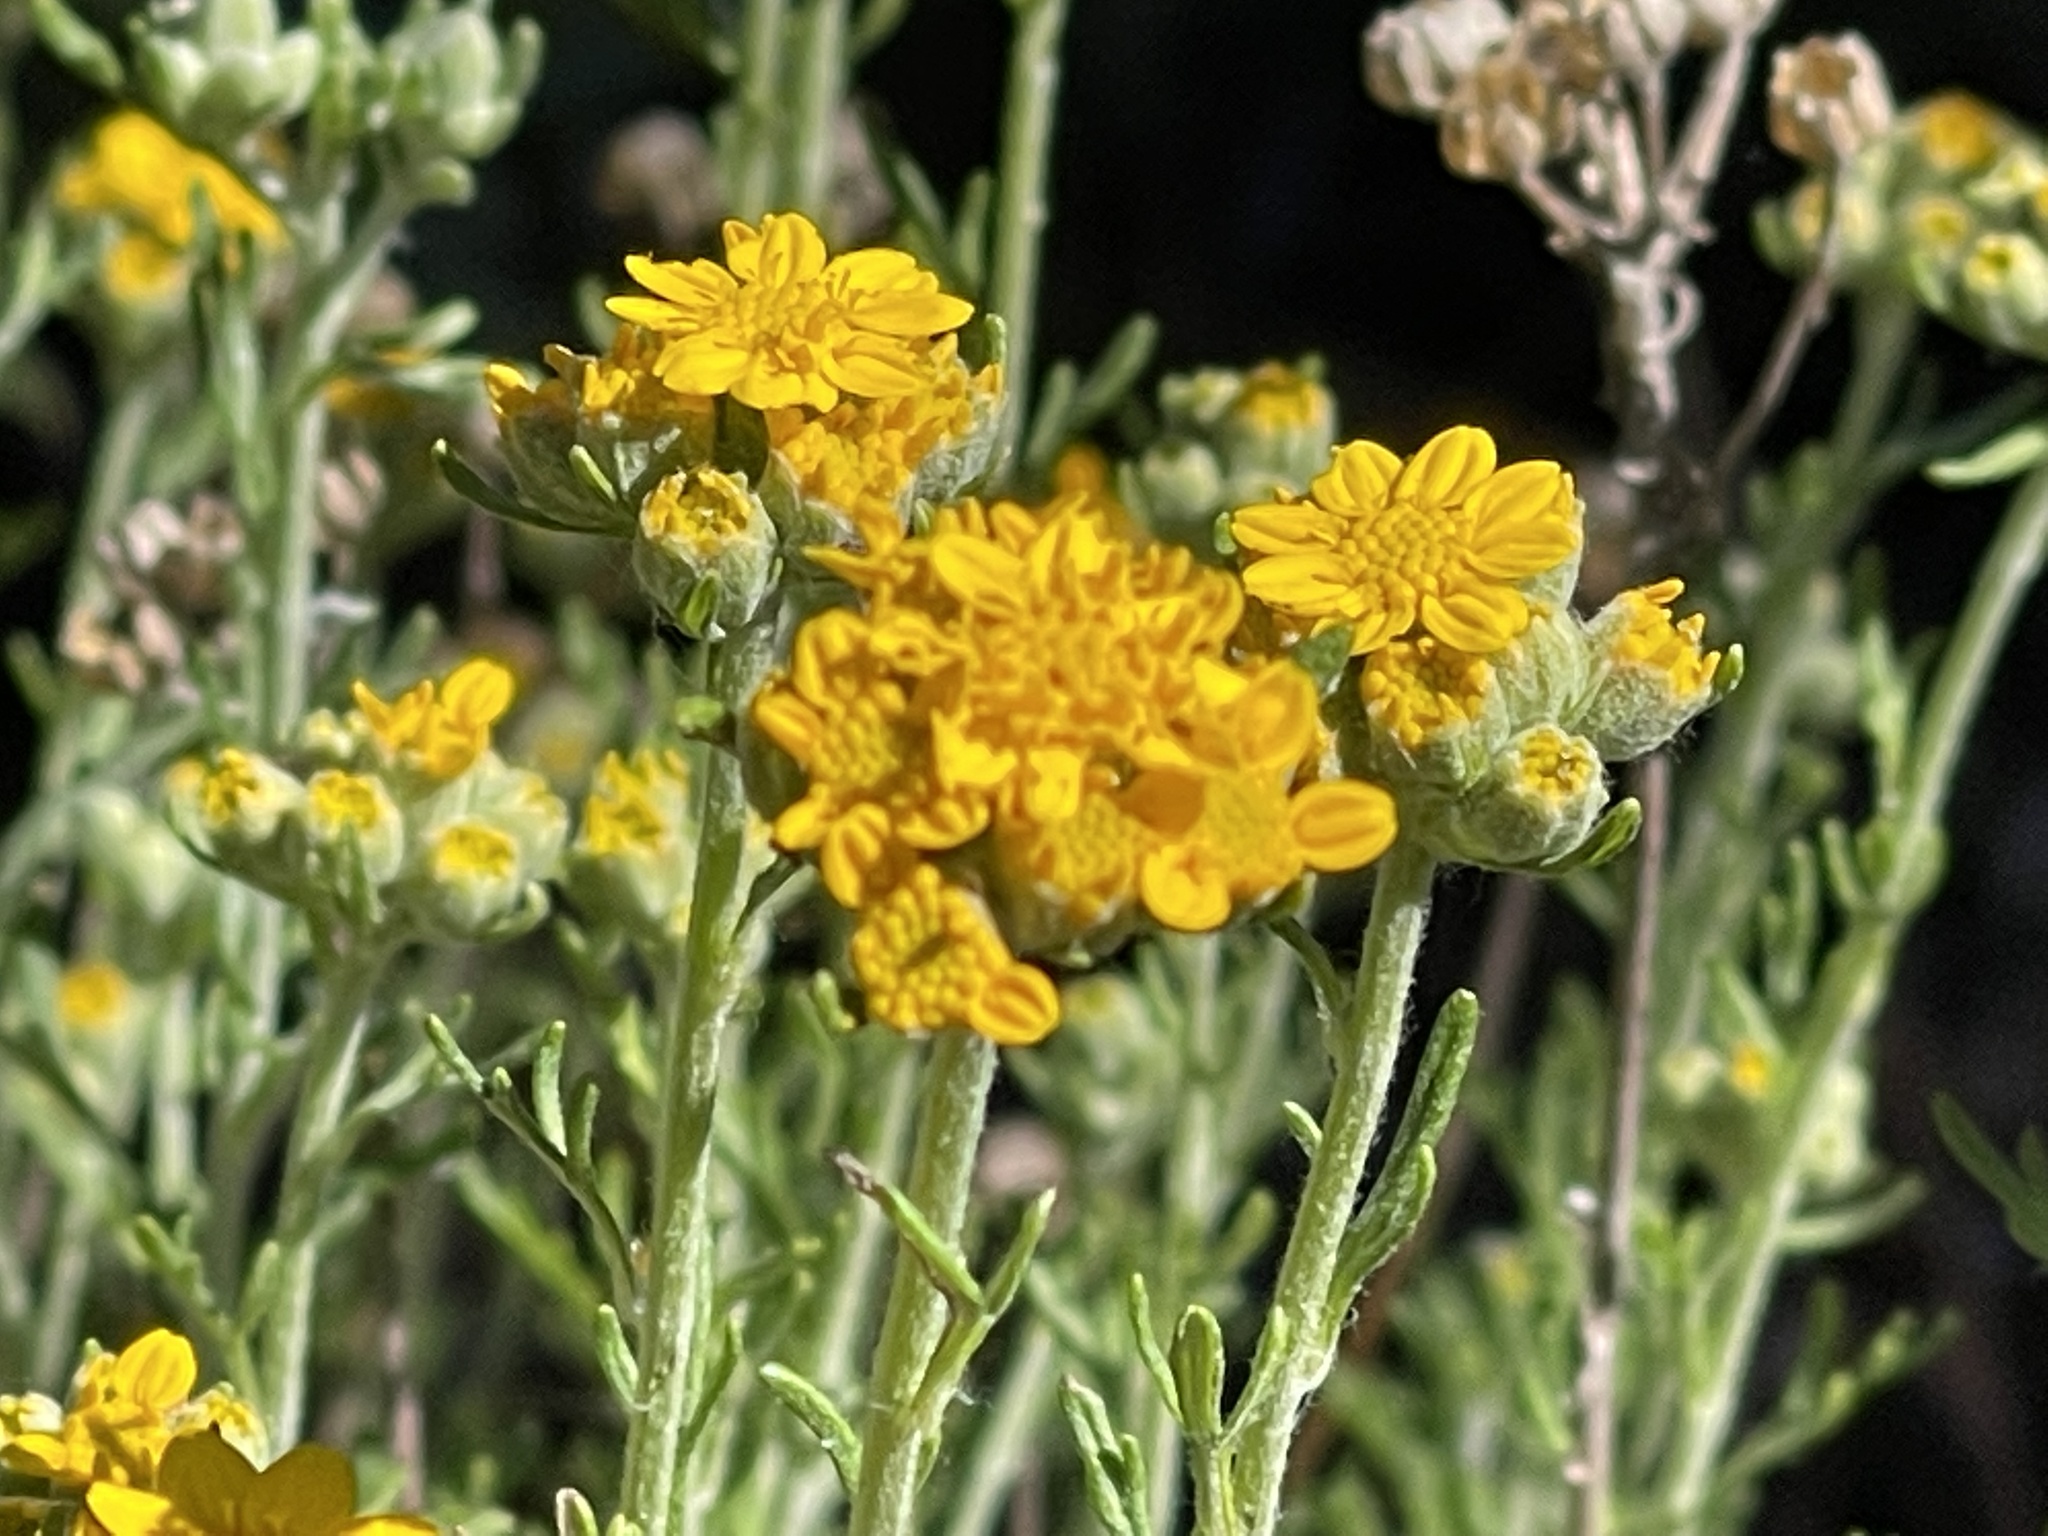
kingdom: Plantae
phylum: Tracheophyta
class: Magnoliopsida
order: Asterales
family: Asteraceae
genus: Eriophyllum
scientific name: Eriophyllum confertiflorum
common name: Golden-yarrow
